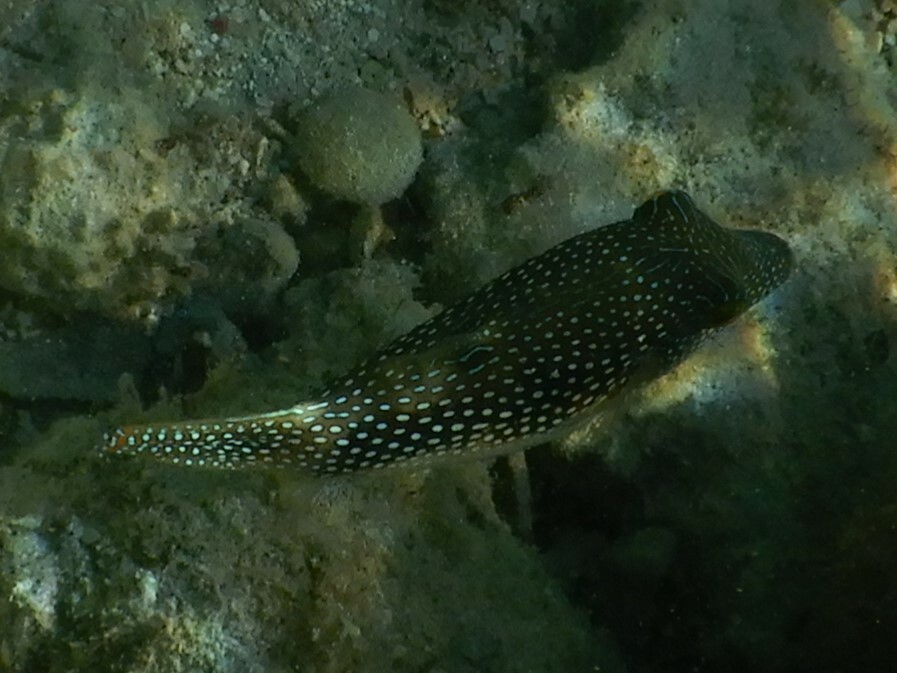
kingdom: Animalia
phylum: Chordata
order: Tetraodontiformes
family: Tetraodontidae
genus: Canthigaster
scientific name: Canthigaster margaritata
